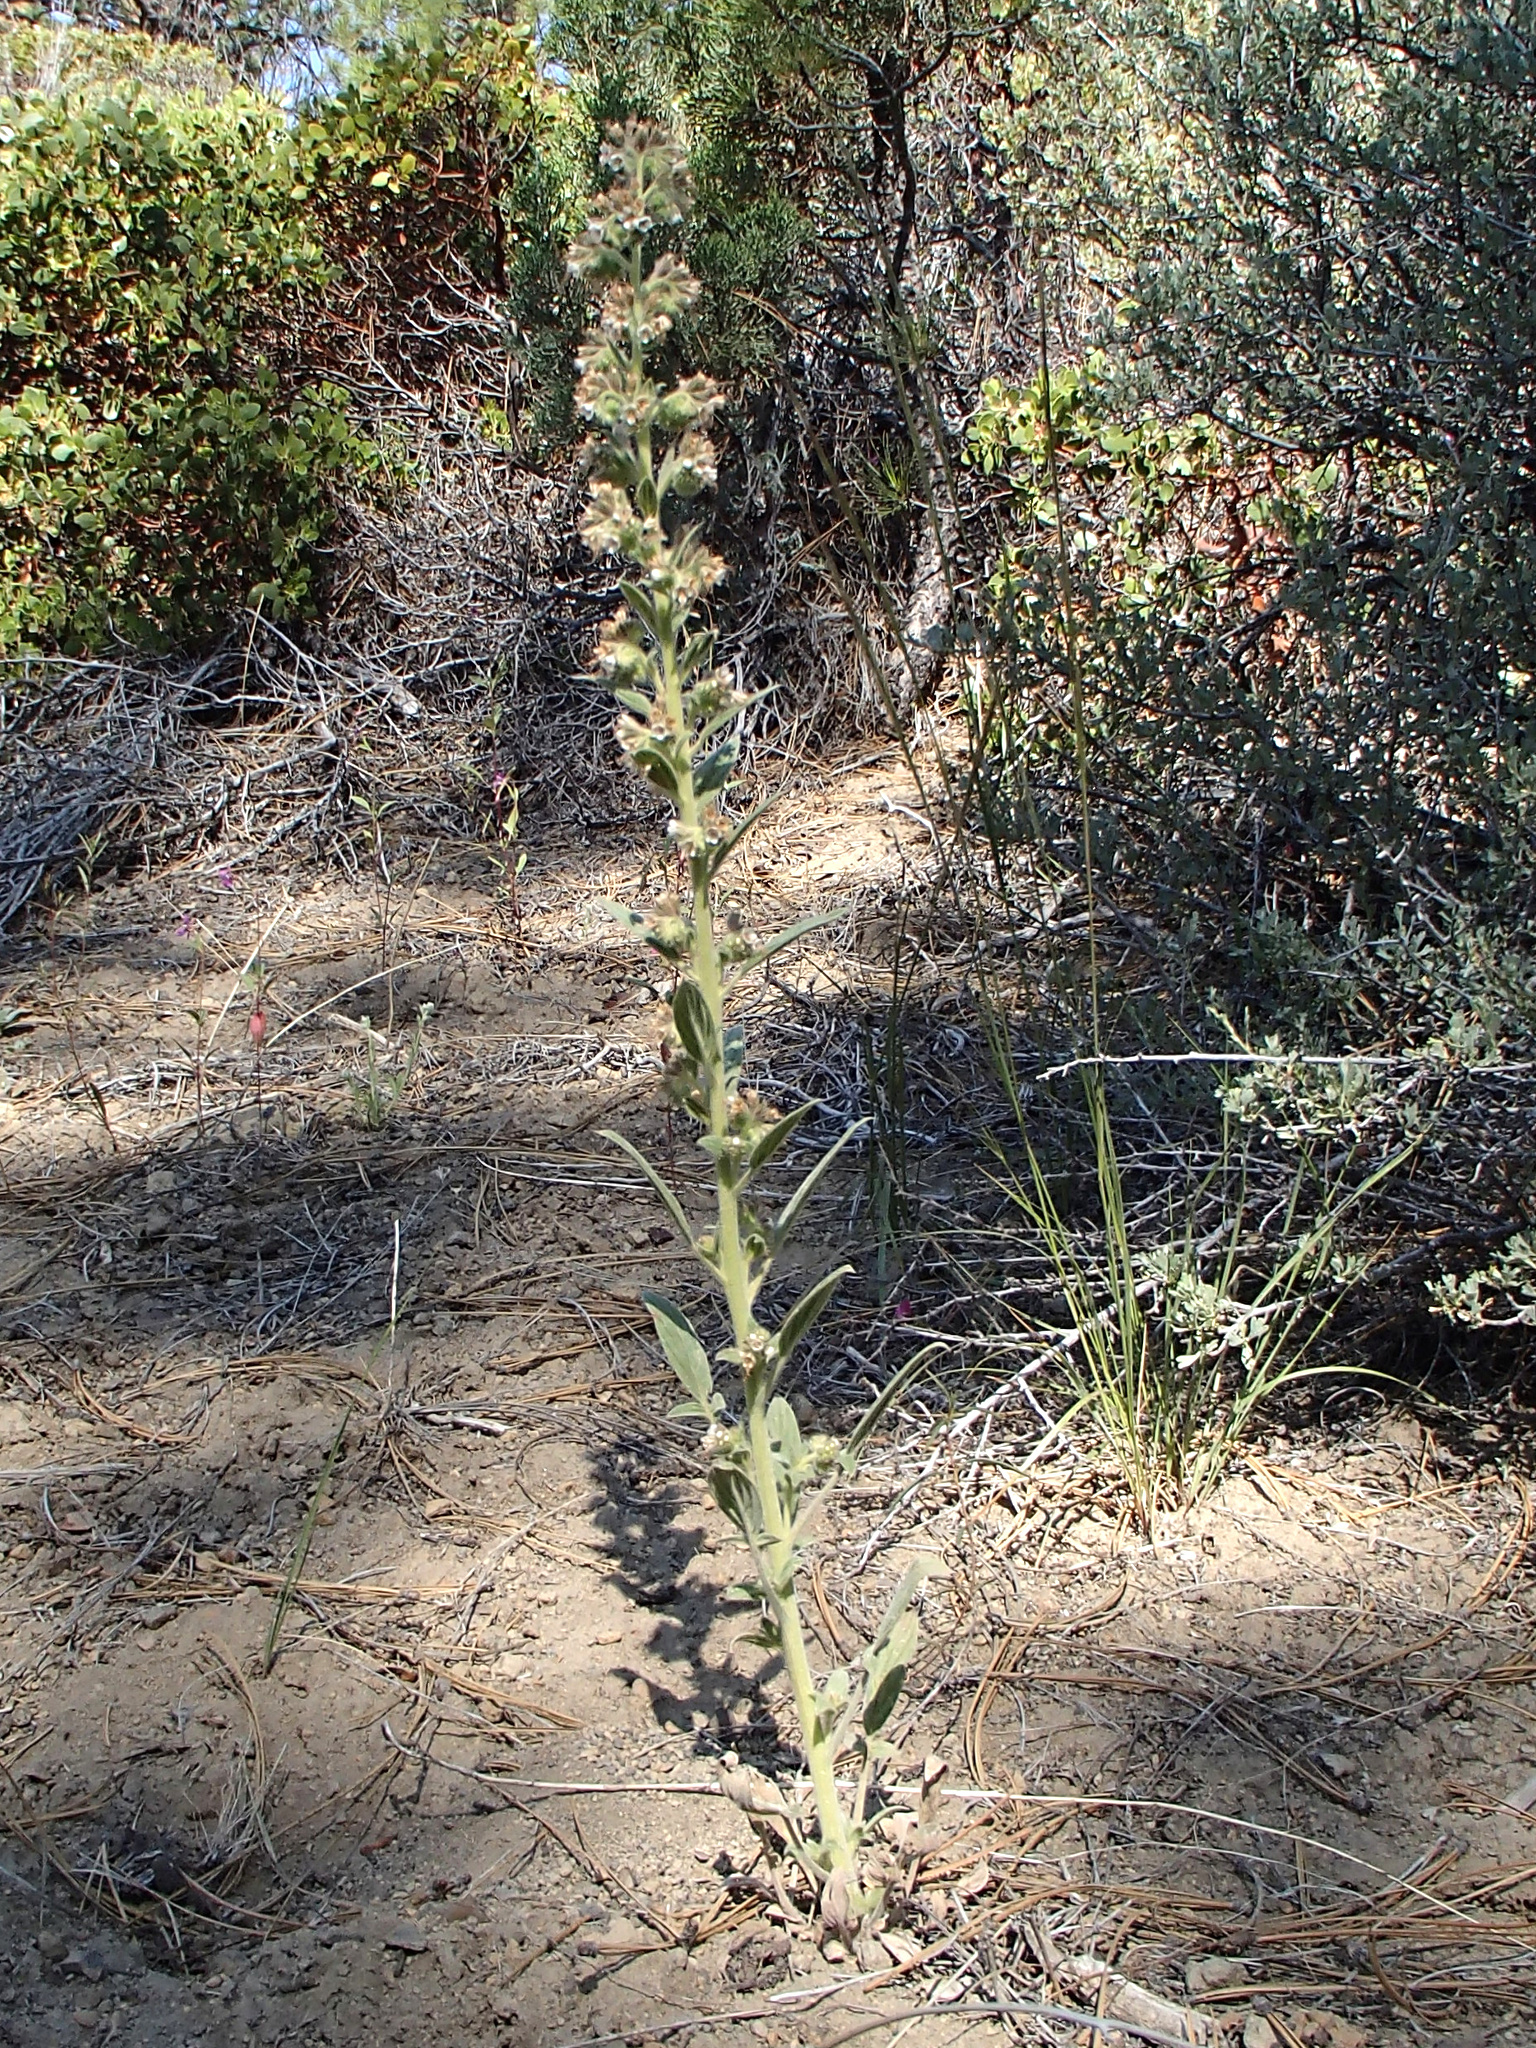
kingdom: Plantae
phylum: Tracheophyta
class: Magnoliopsida
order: Boraginales
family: Hydrophyllaceae
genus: Phacelia
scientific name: Phacelia heterophylla
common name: Variable-leaved phacelia
